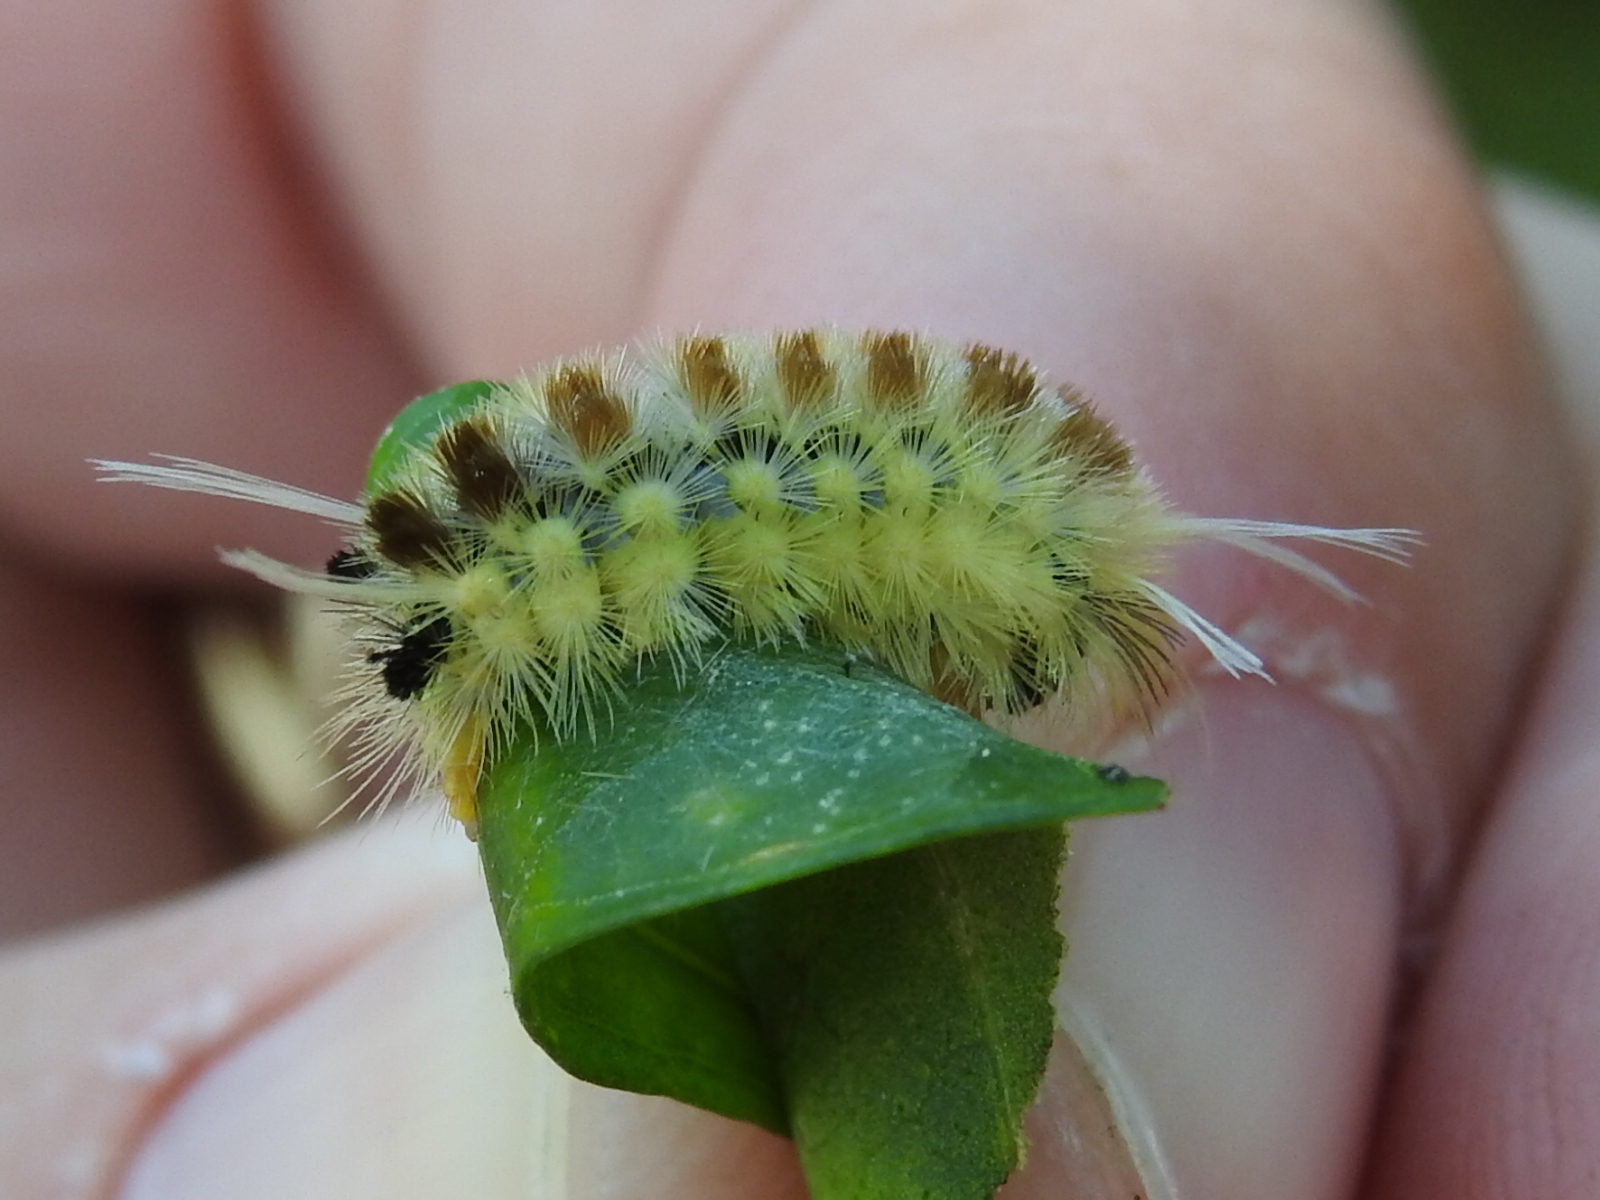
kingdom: Animalia
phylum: Arthropoda
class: Insecta
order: Lepidoptera
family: Erebidae
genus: Lophocampa
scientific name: Lophocampa annulosa
